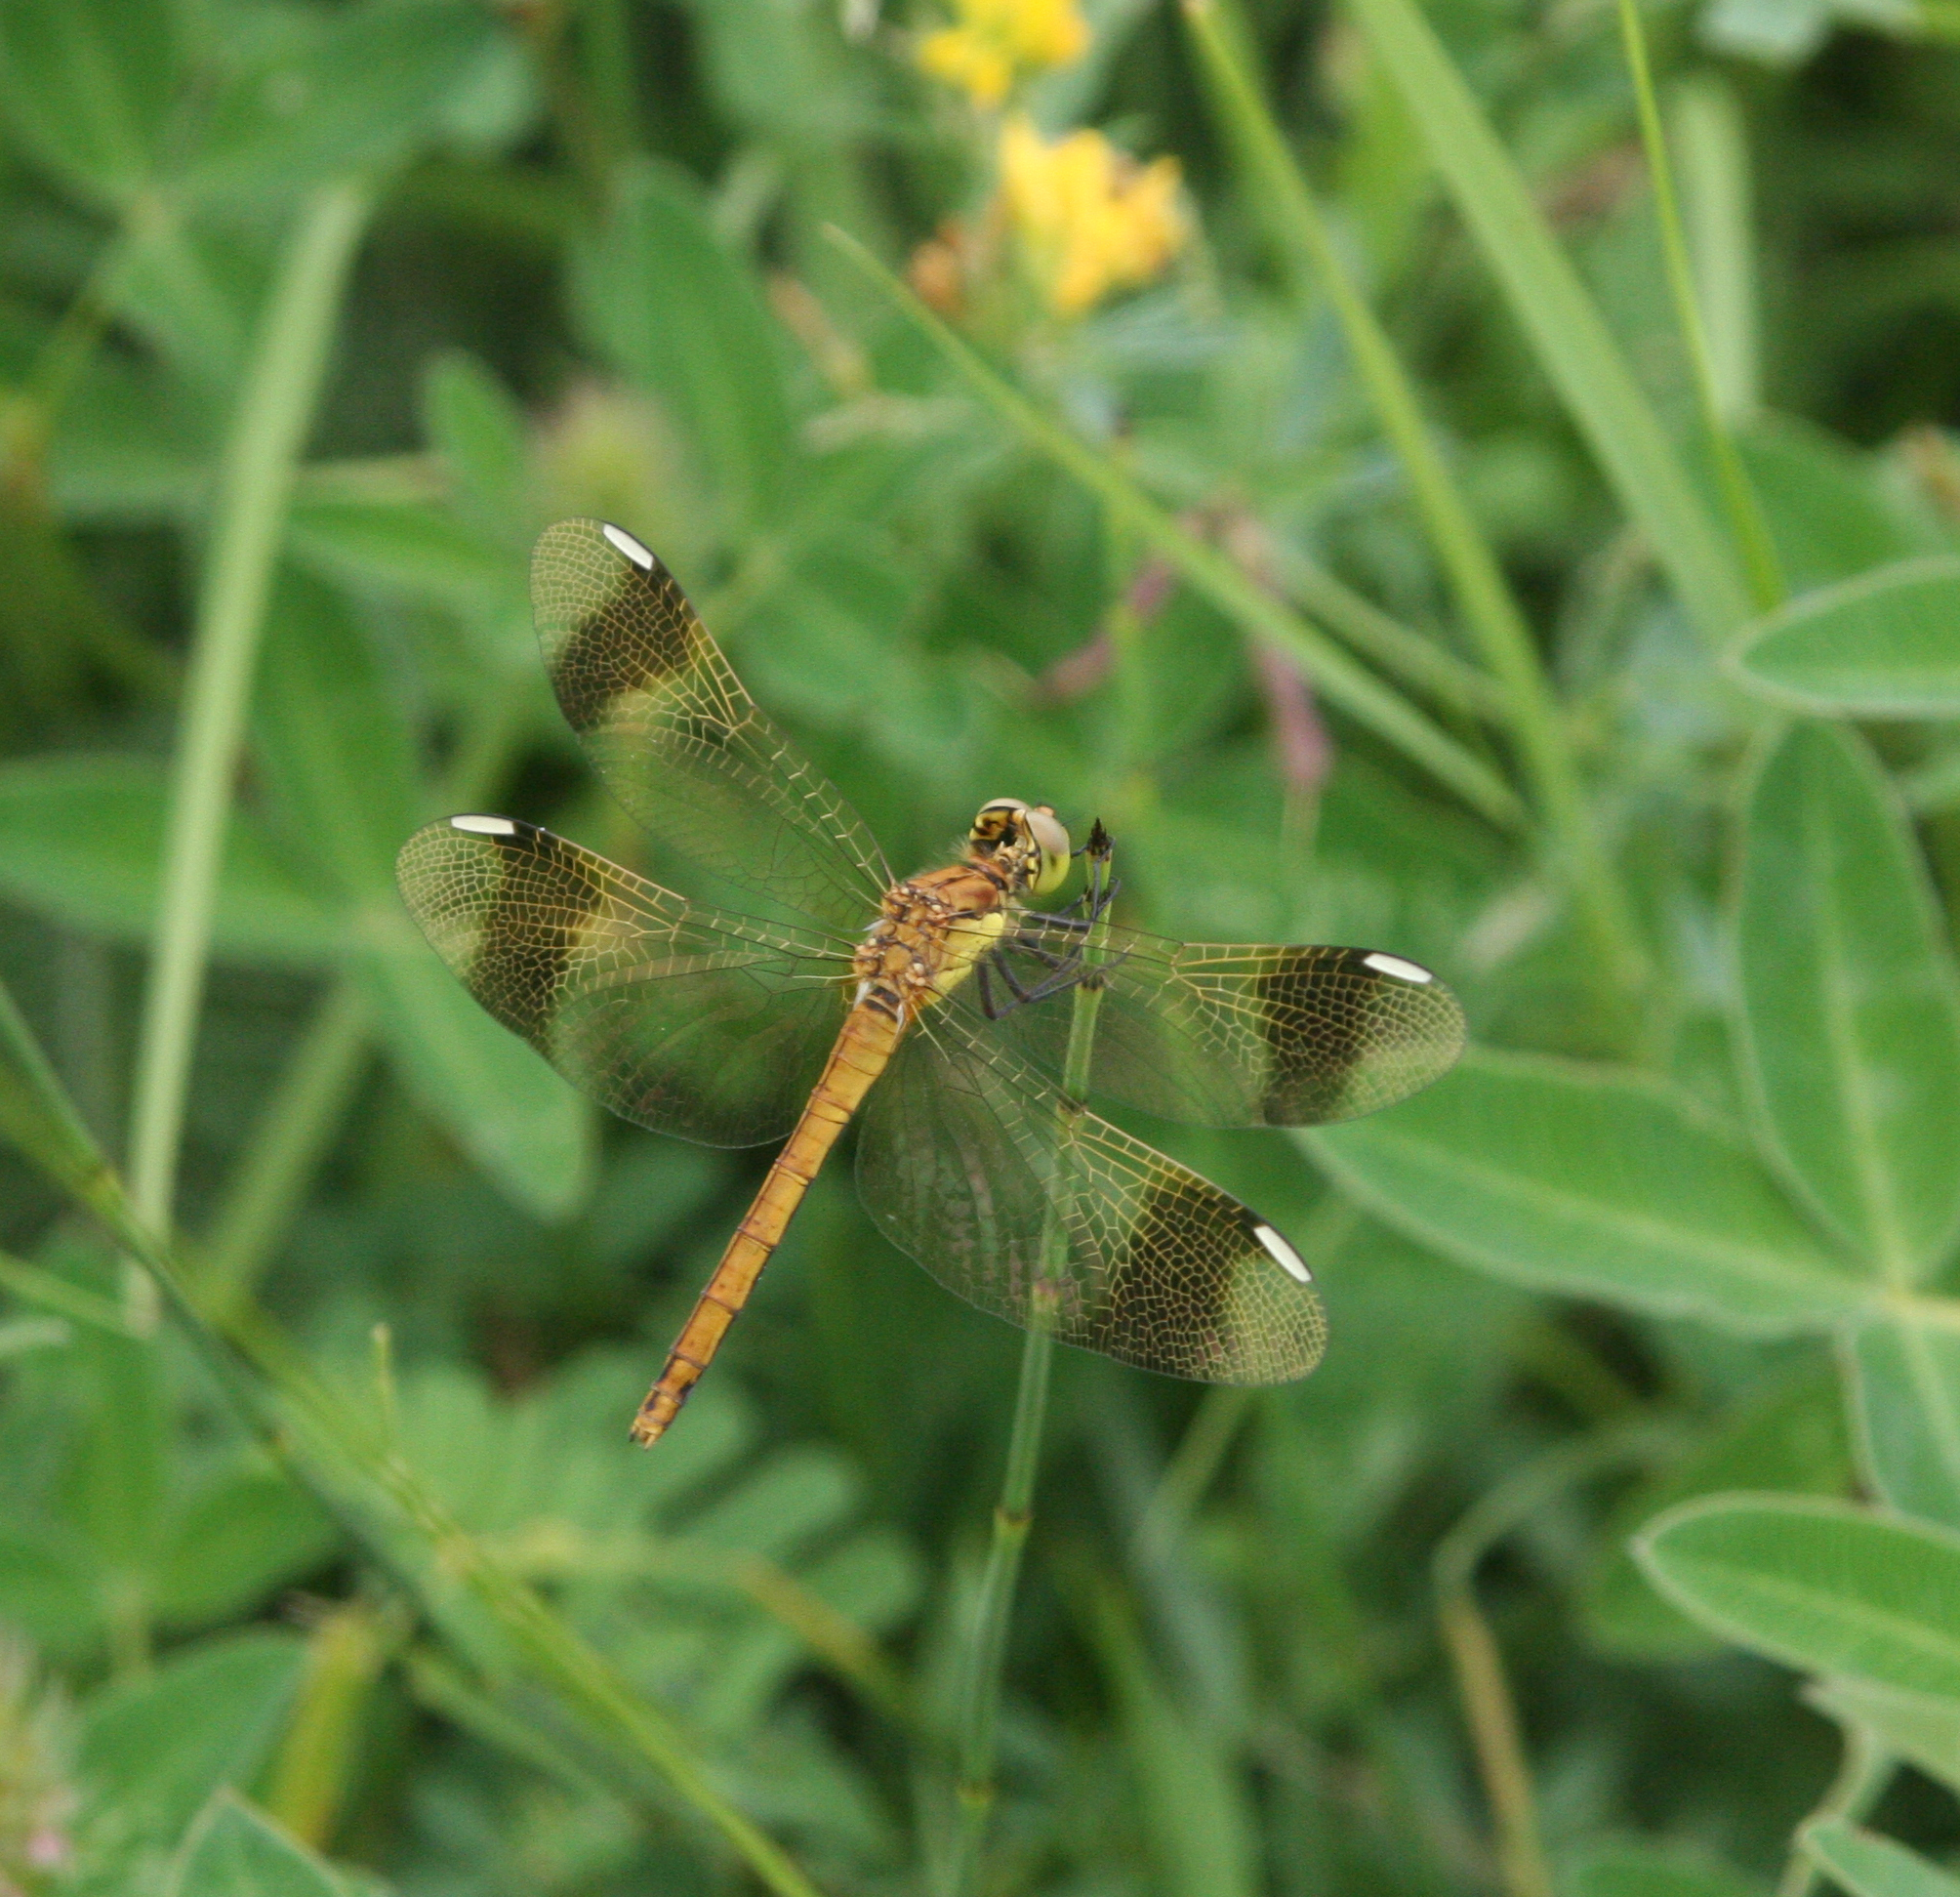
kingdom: Animalia
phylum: Arthropoda
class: Insecta
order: Odonata
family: Libellulidae
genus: Sympetrum
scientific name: Sympetrum pedemontanum
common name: Banded darter
